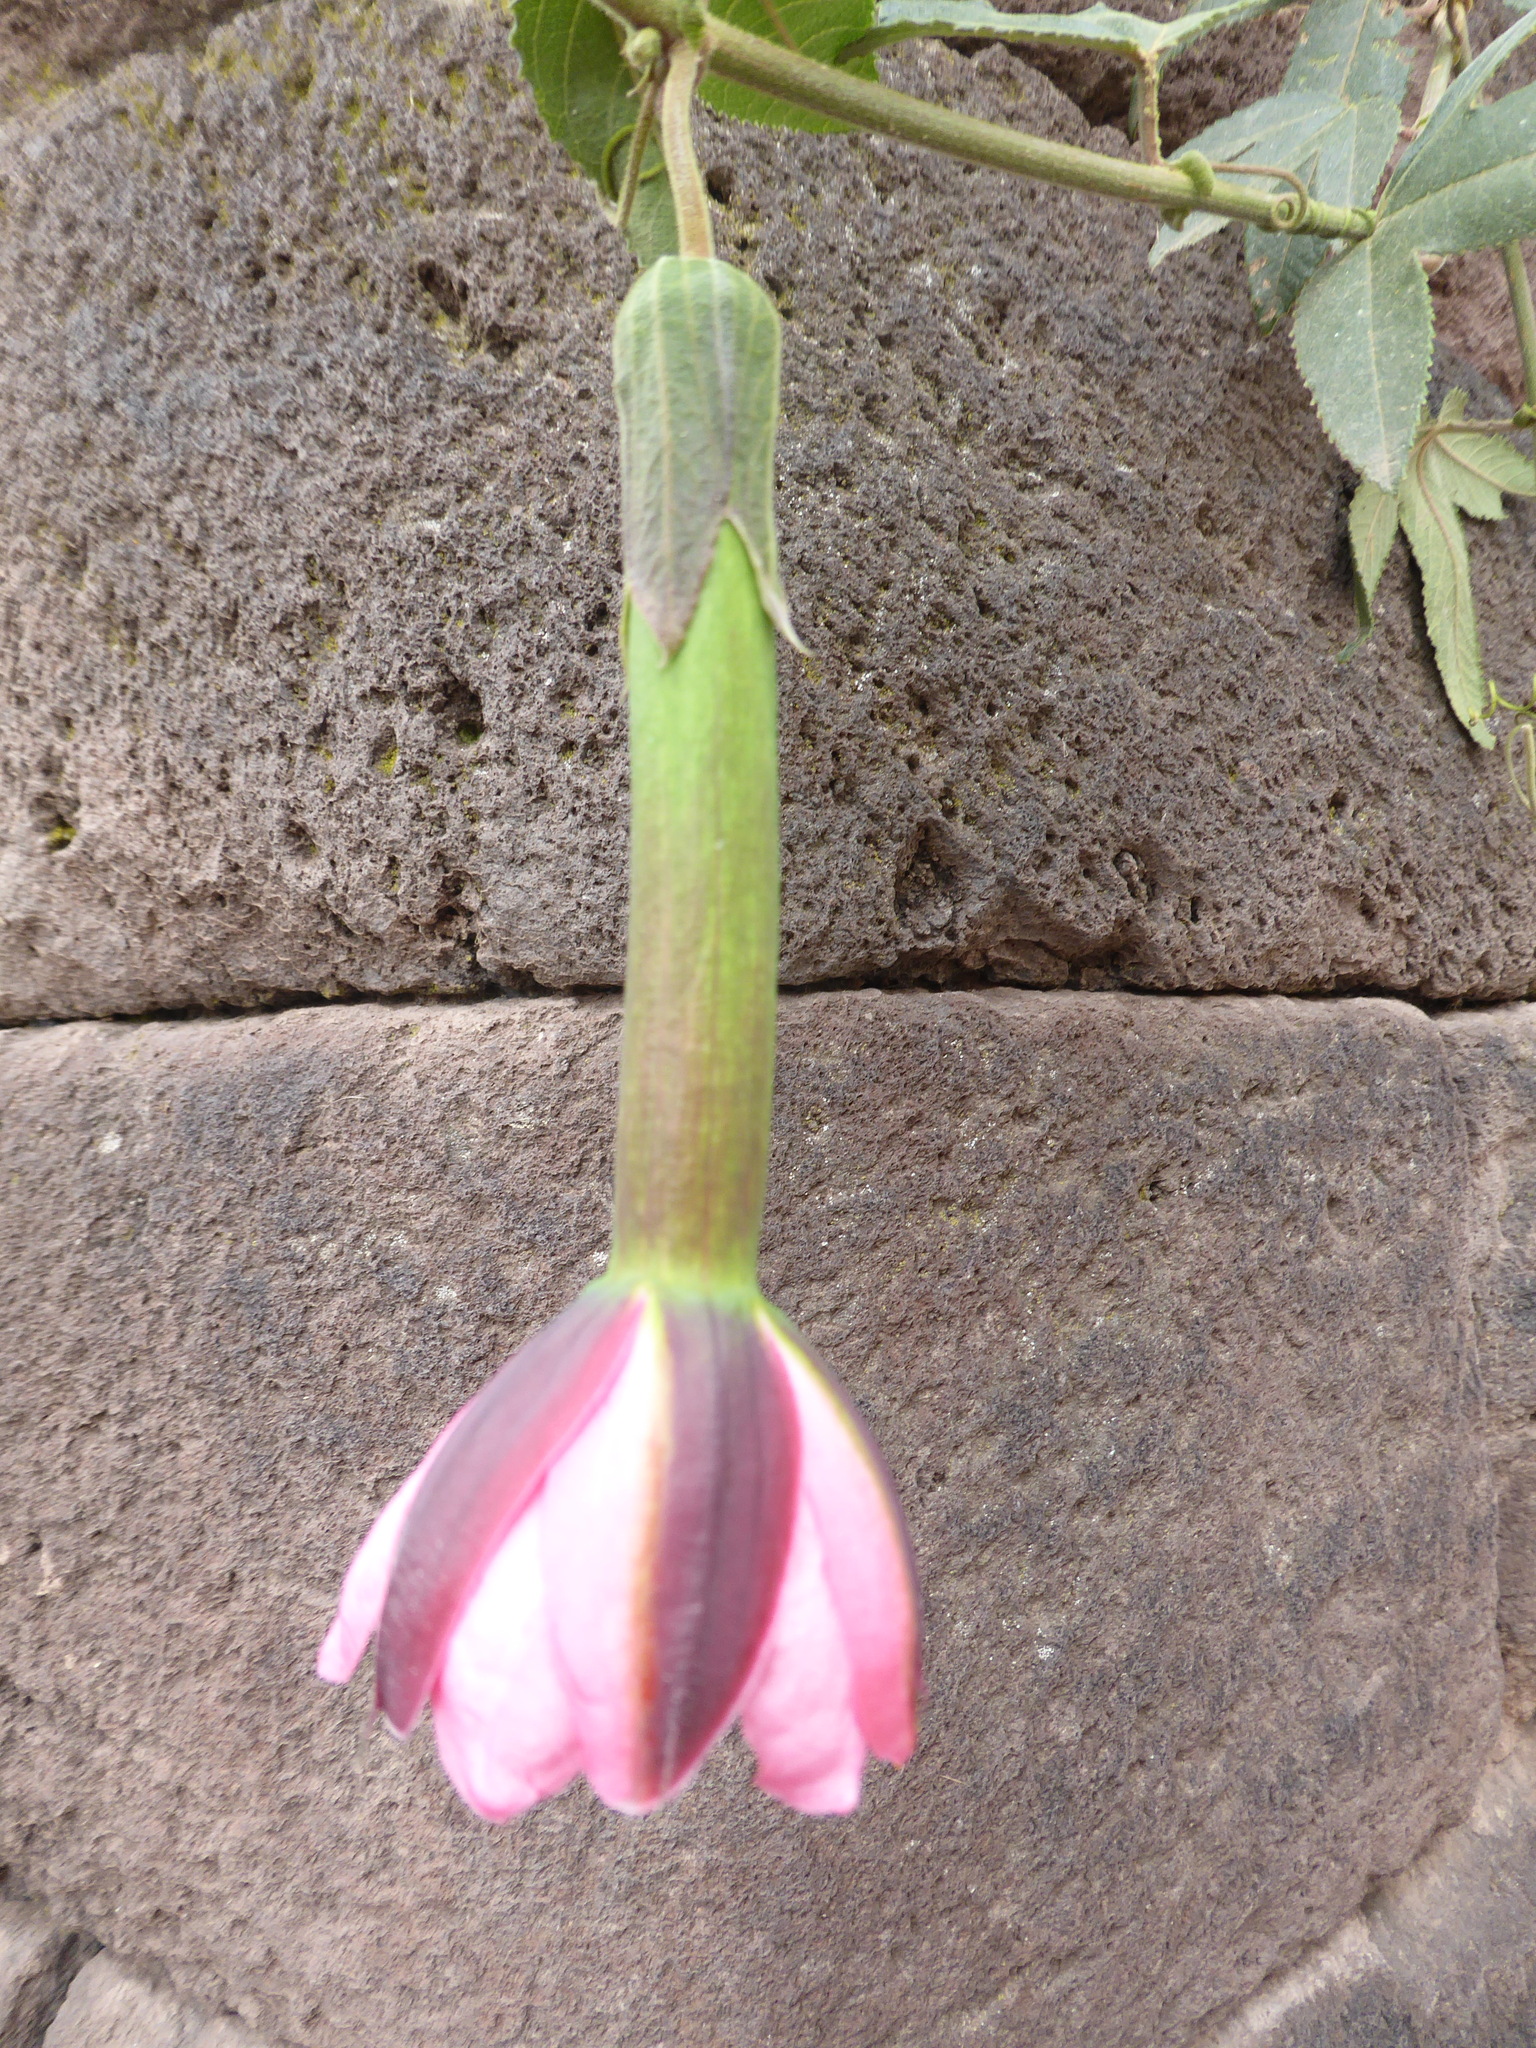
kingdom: Plantae
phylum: Tracheophyta
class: Magnoliopsida
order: Malpighiales
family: Passifloraceae
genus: Passiflora
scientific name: Passiflora tripartita
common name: Banana poka
